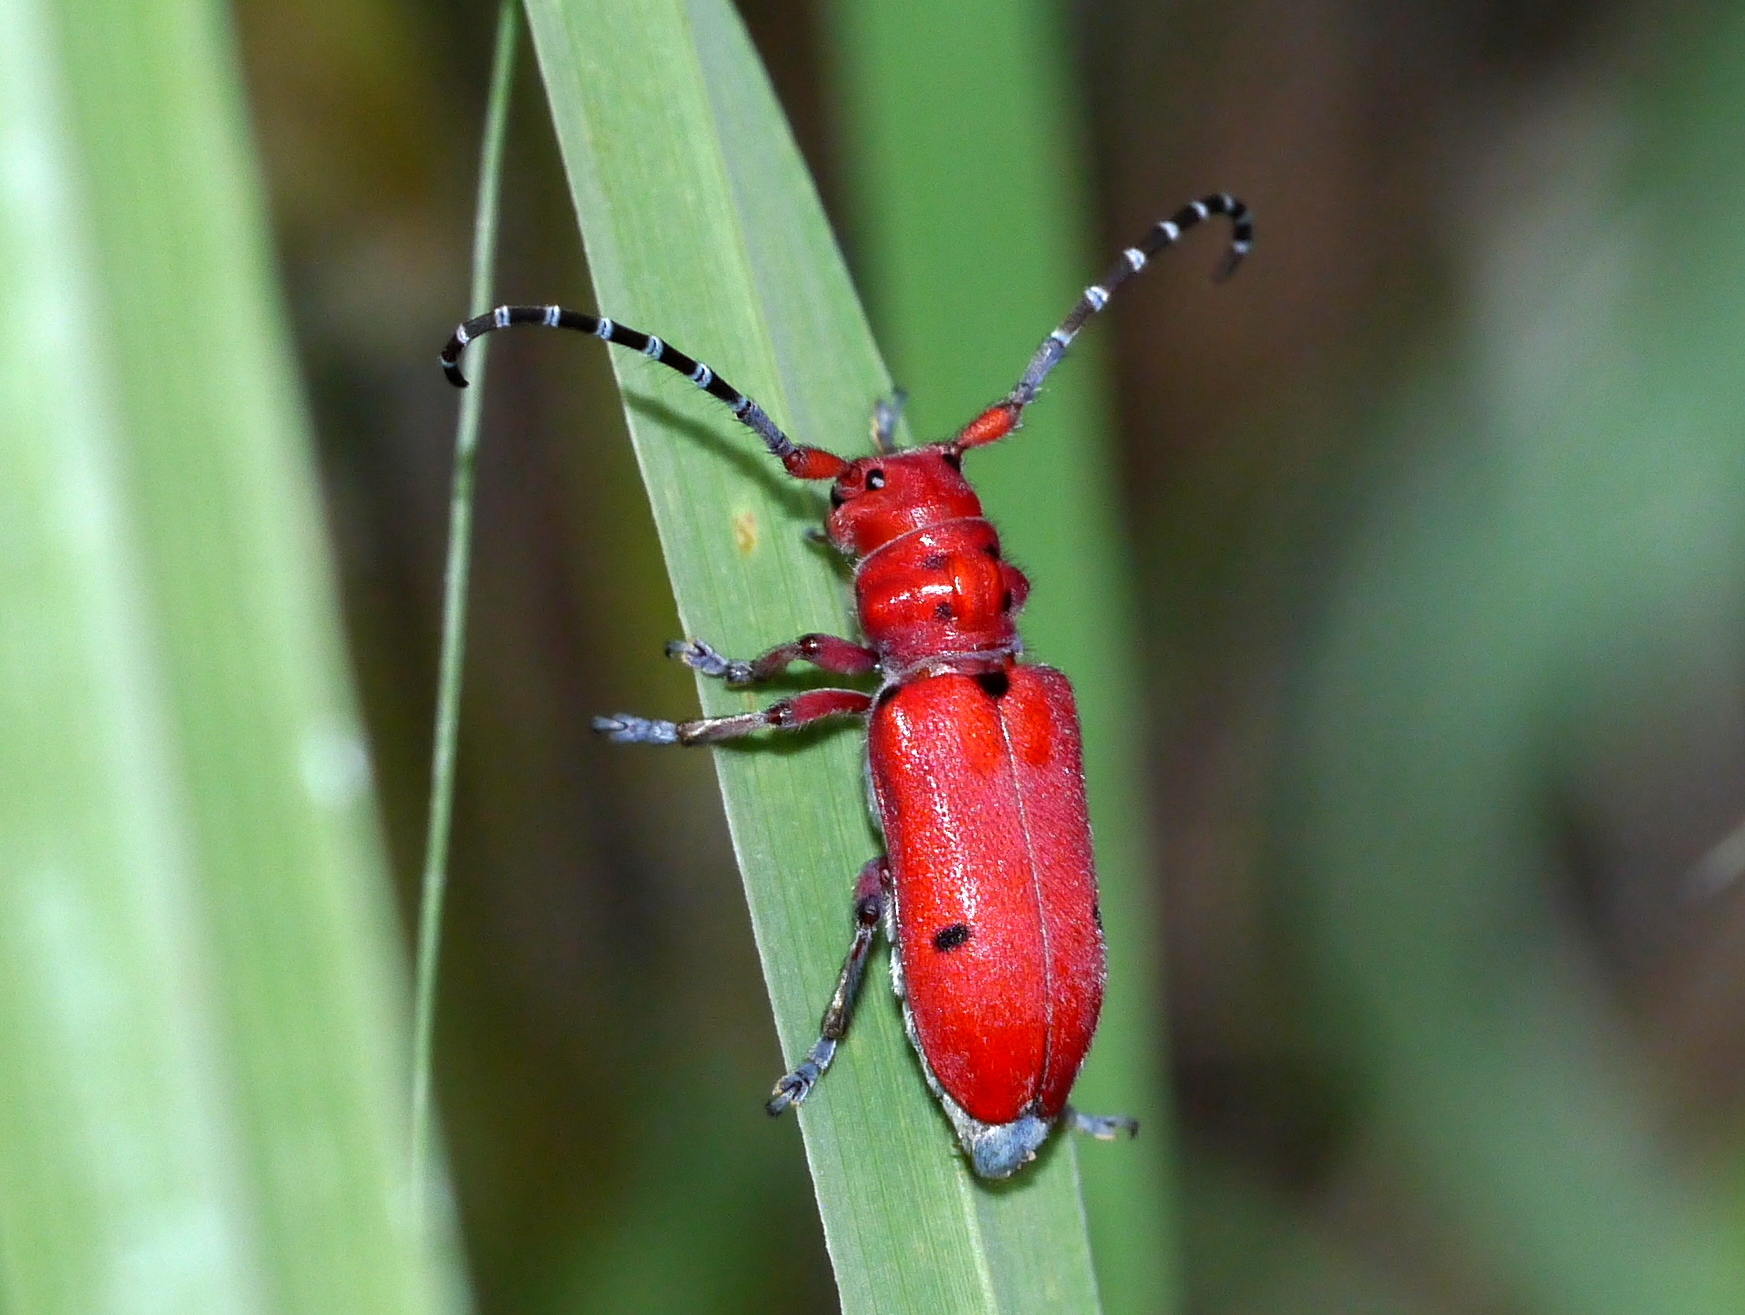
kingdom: Animalia
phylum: Arthropoda
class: Insecta
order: Coleoptera
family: Cerambycidae
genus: Tetraopes
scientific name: Tetraopes femoratus
